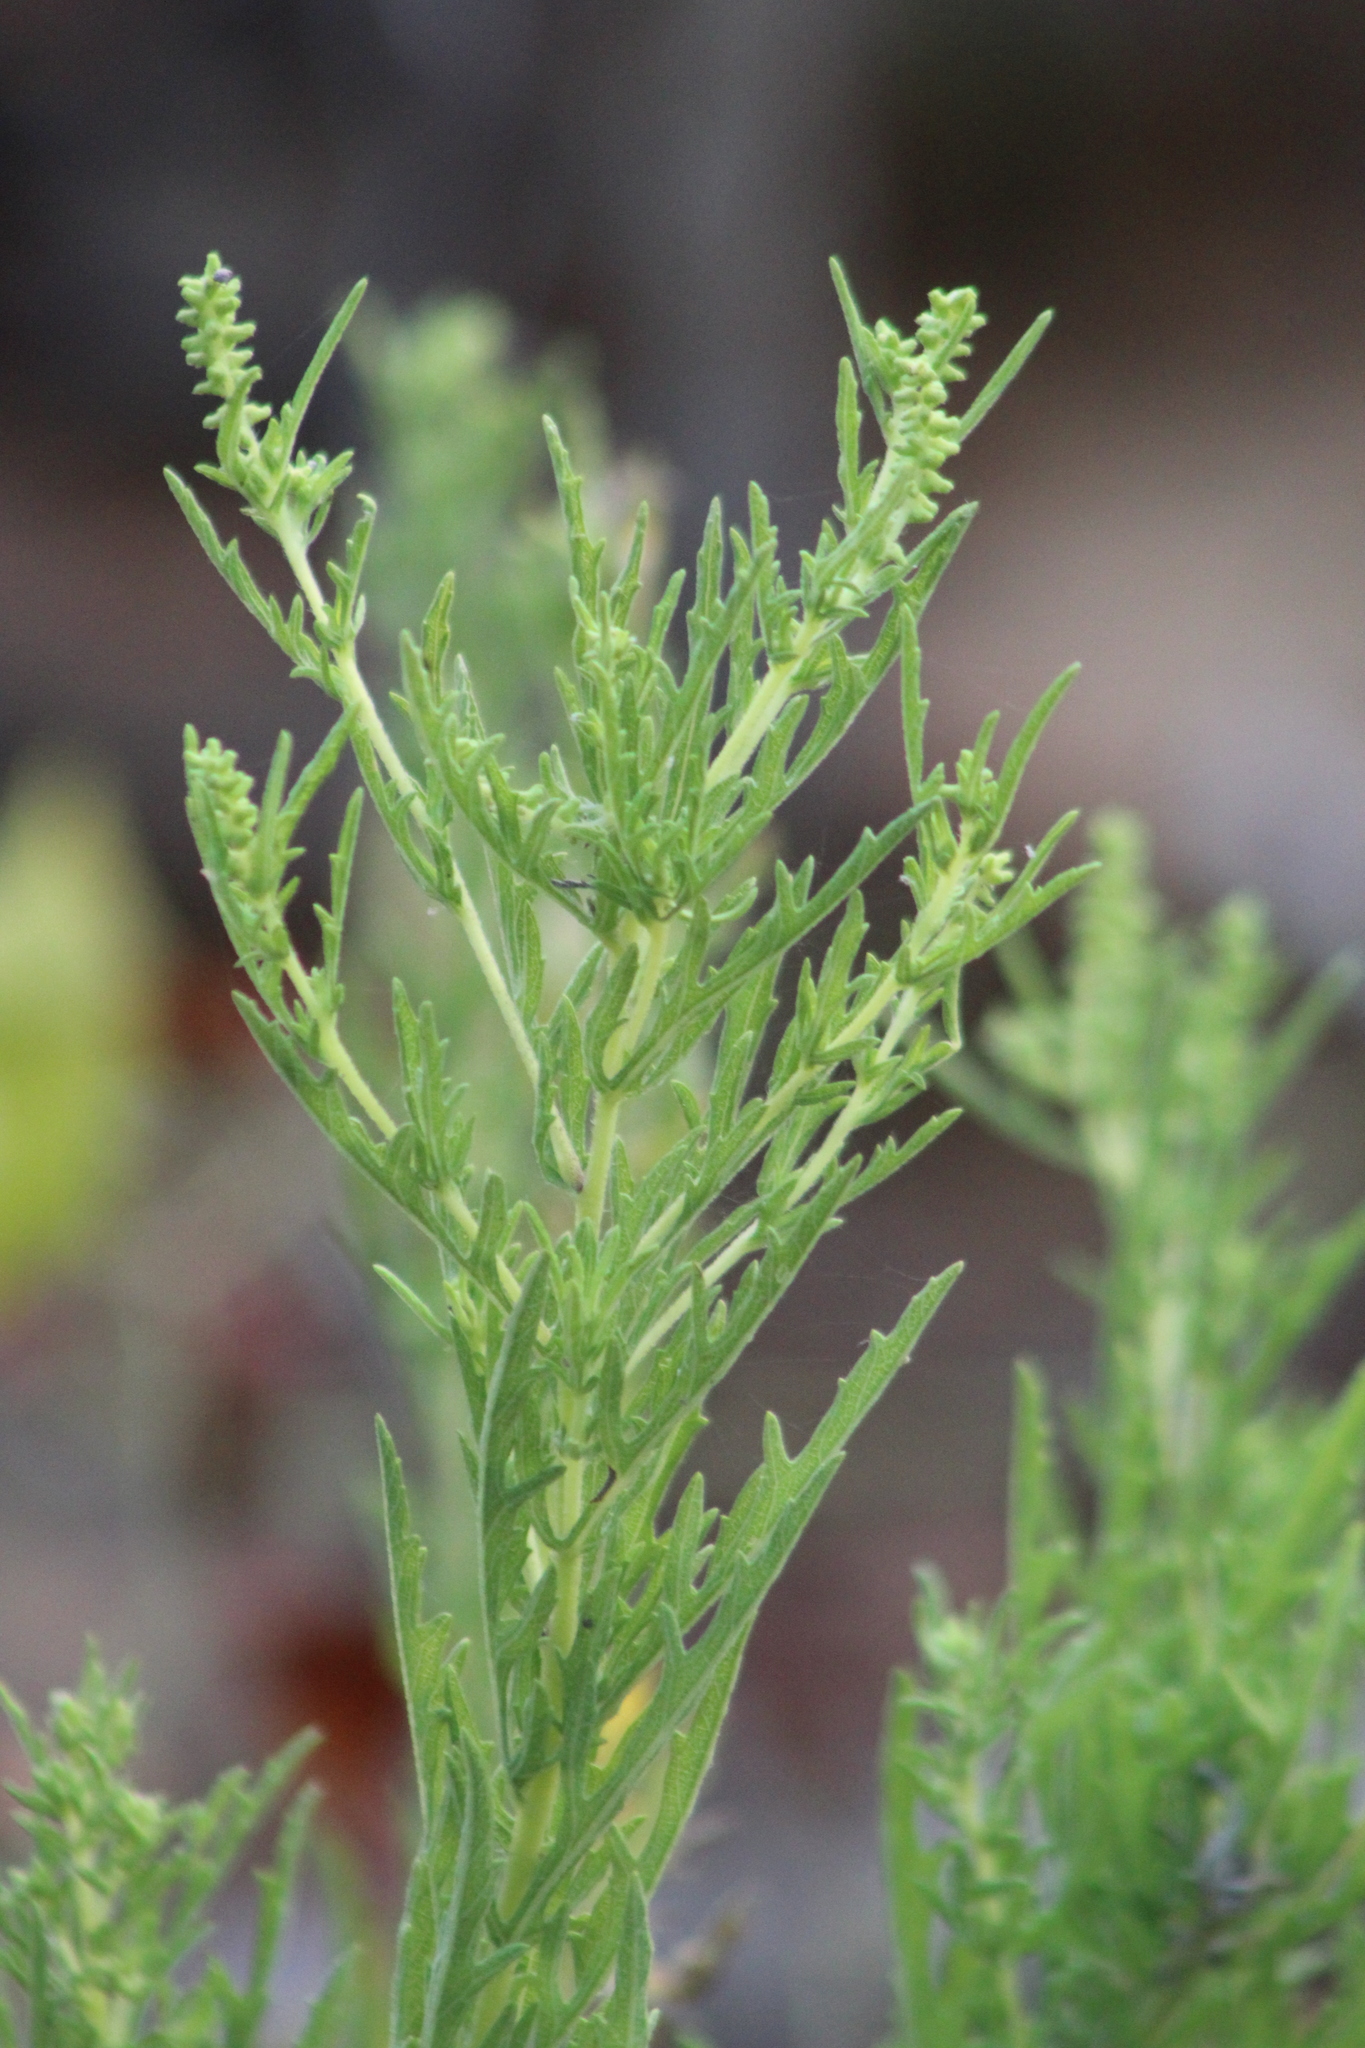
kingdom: Plantae
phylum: Tracheophyta
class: Magnoliopsida
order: Asterales
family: Asteraceae
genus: Ambrosia
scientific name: Ambrosia psilostachya
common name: Perennial ragweed
